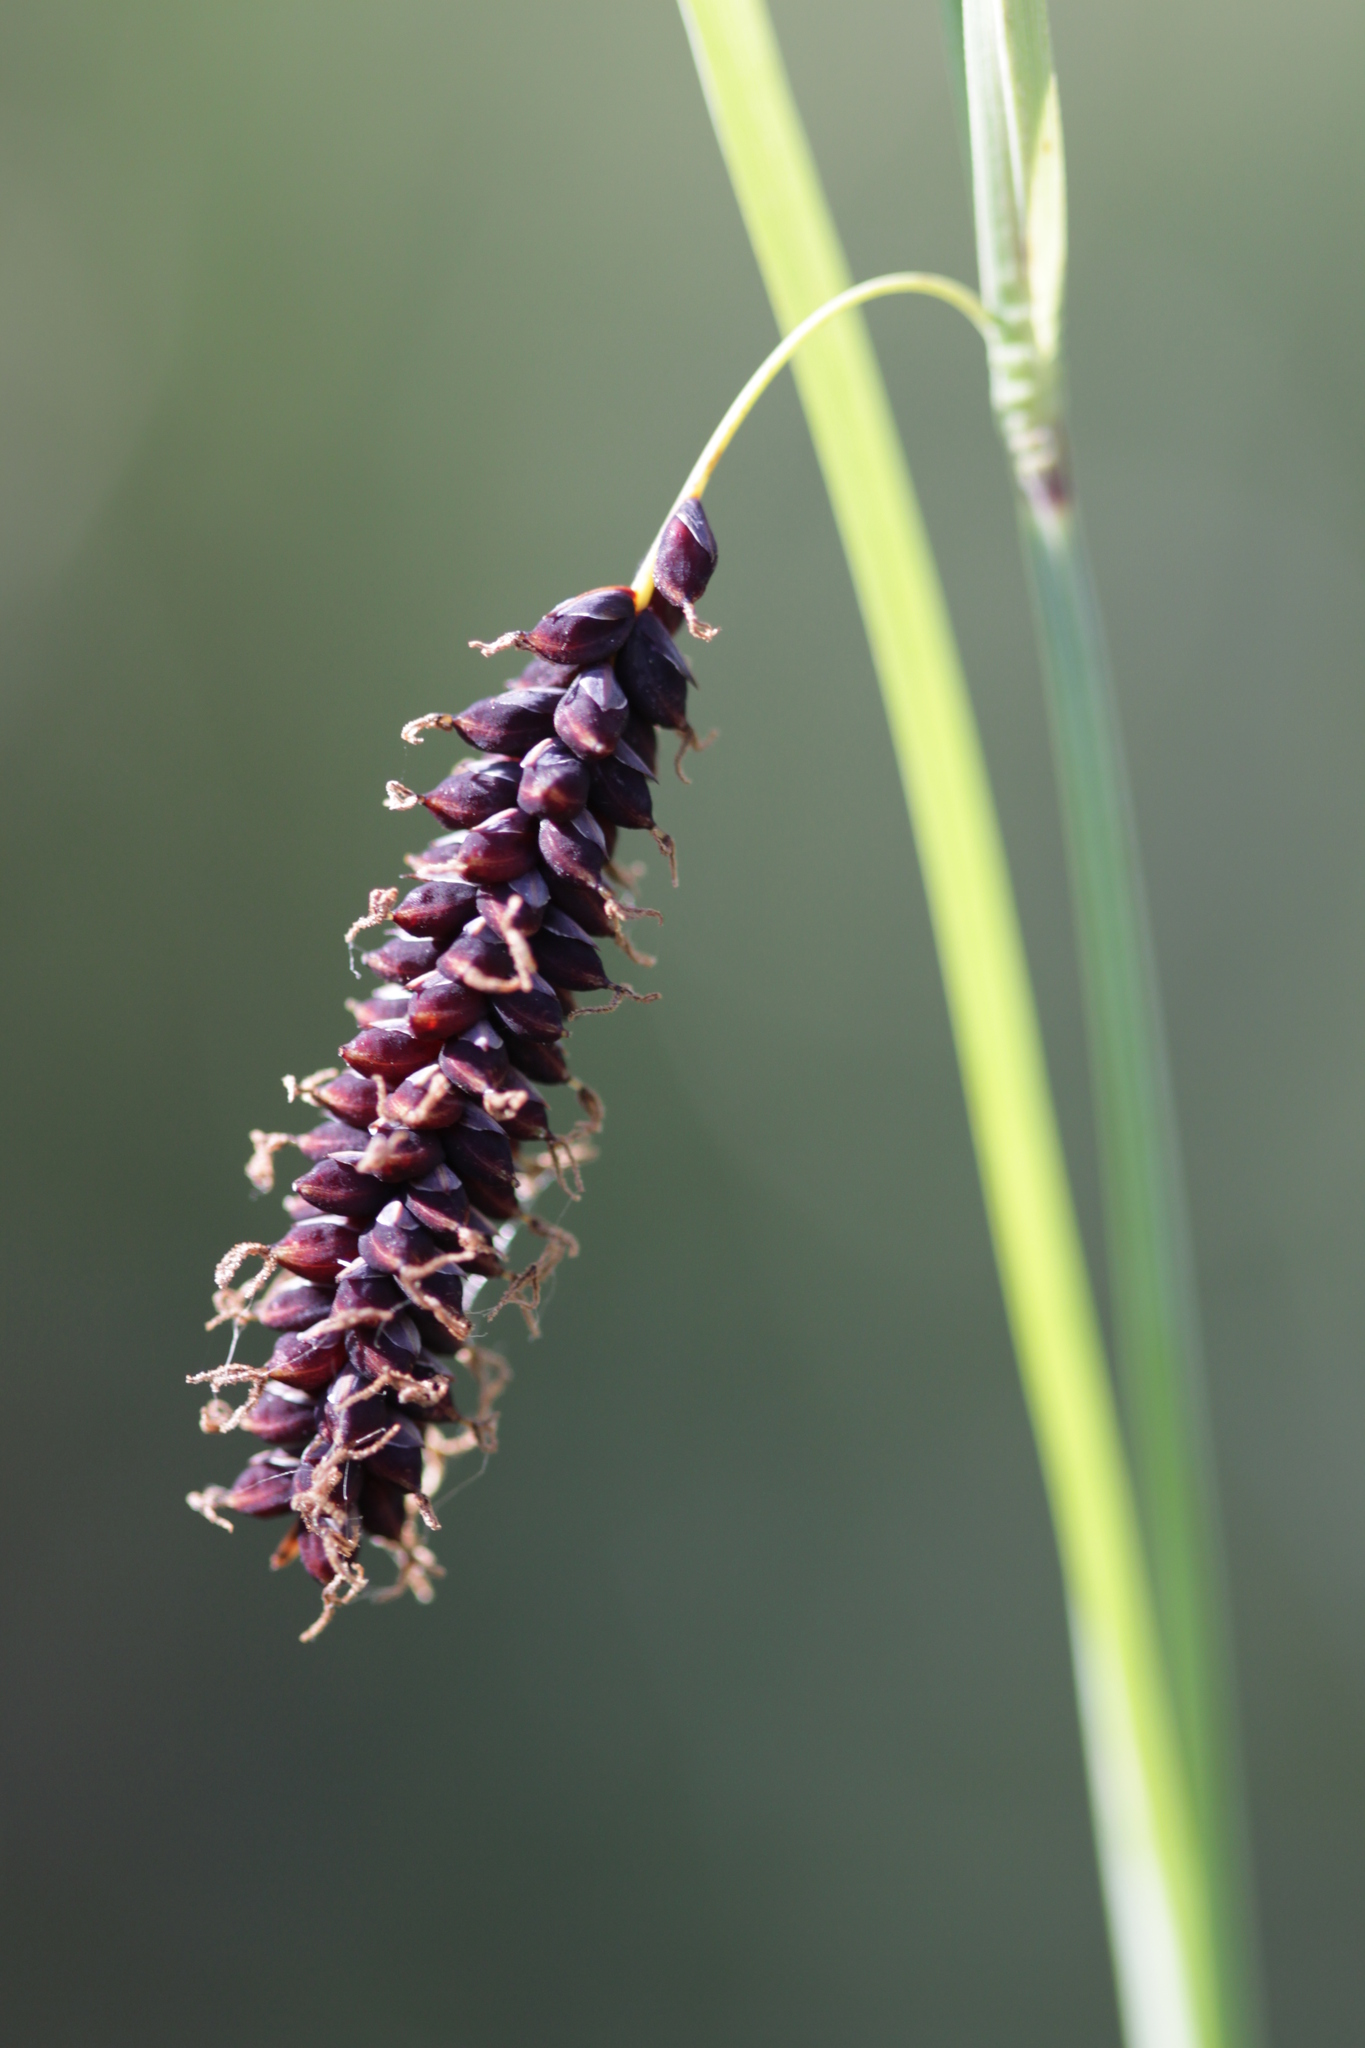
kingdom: Plantae
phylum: Tracheophyta
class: Liliopsida
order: Poales
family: Cyperaceae
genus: Carex
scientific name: Carex flacca
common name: Glaucous sedge
